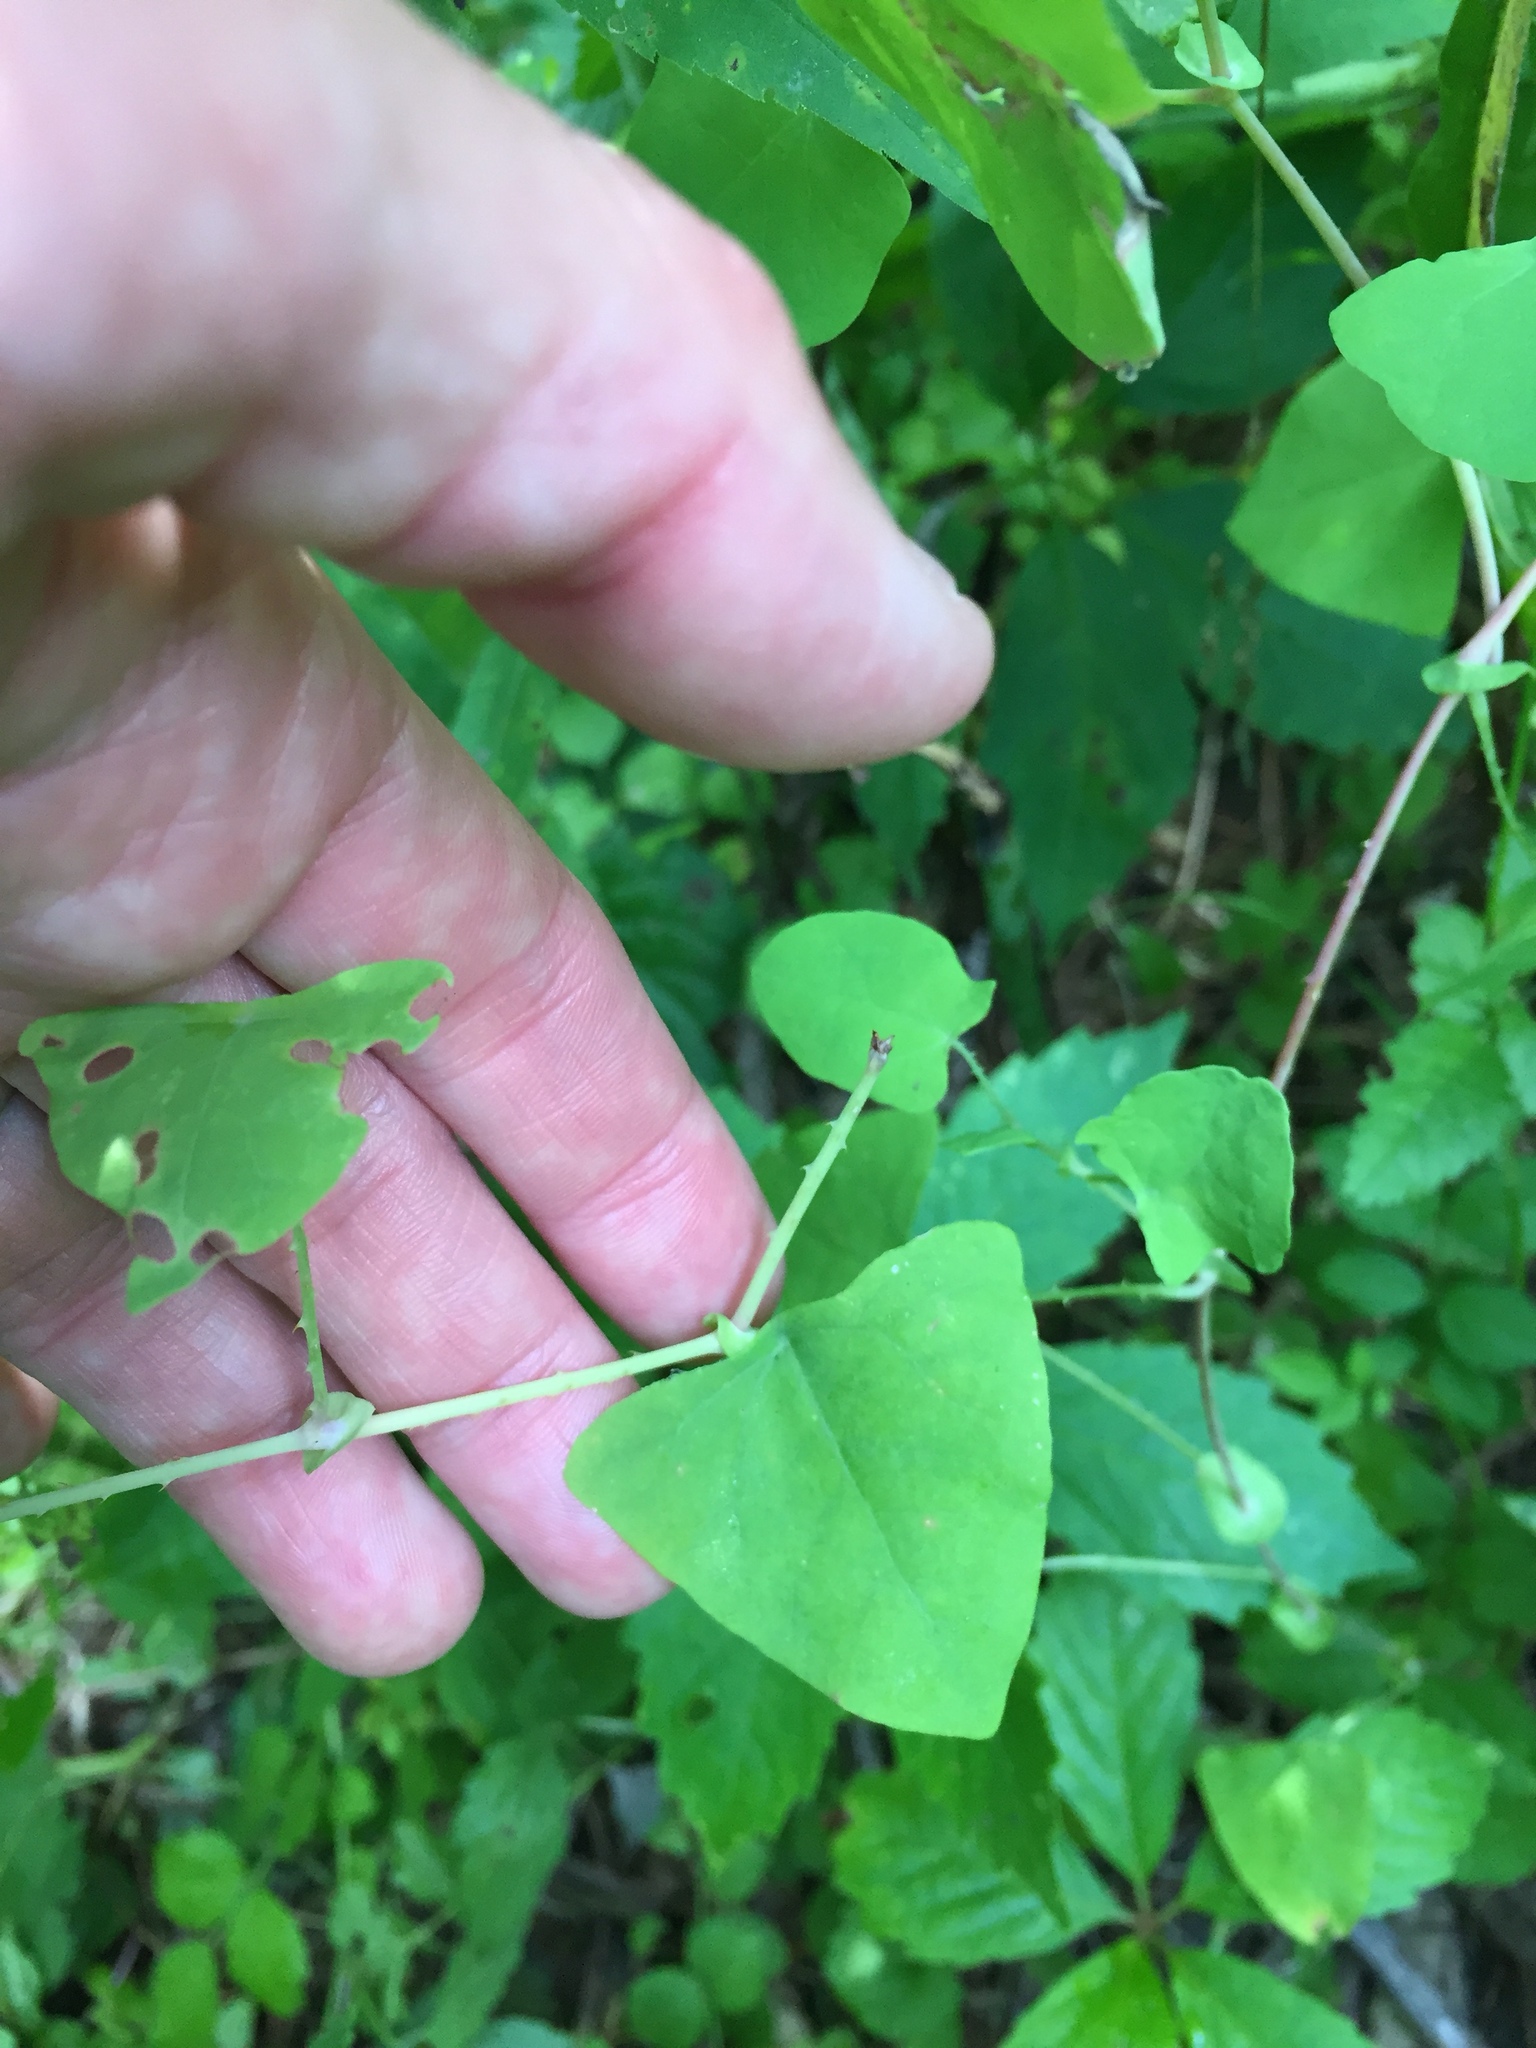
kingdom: Plantae
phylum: Tracheophyta
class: Magnoliopsida
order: Caryophyllales
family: Polygonaceae
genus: Persicaria
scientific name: Persicaria perfoliata
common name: Asiatic tearthumb
